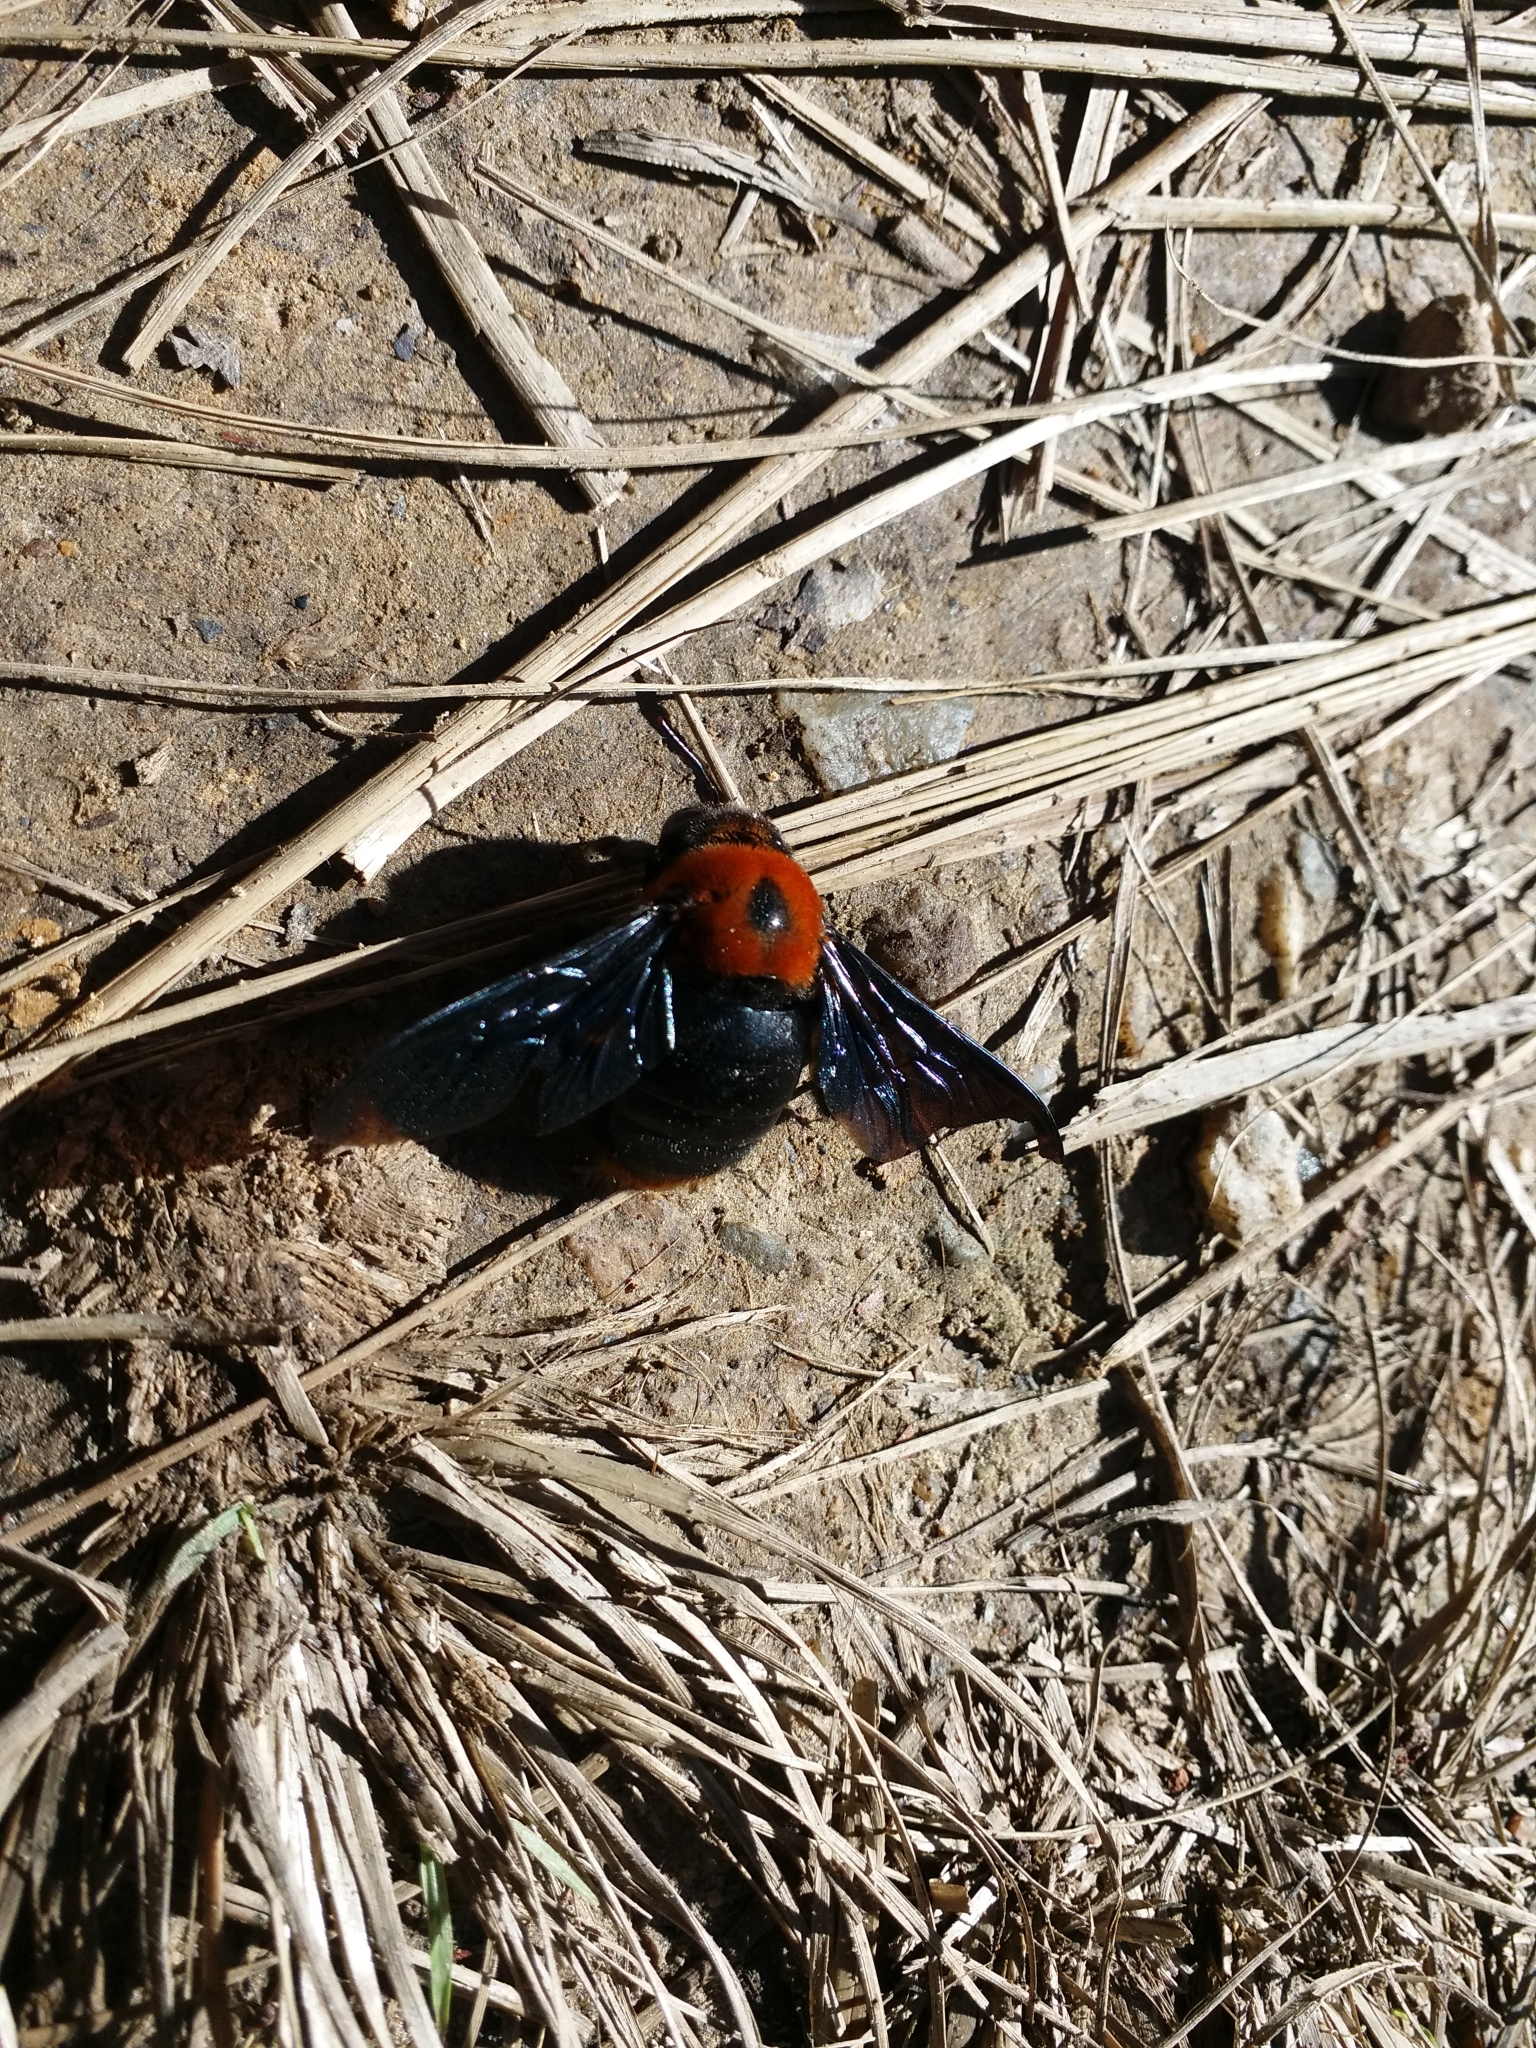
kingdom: Animalia
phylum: Arthropoda
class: Insecta
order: Hymenoptera
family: Apidae
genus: Xylocopa
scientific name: Xylocopa flavorufa
